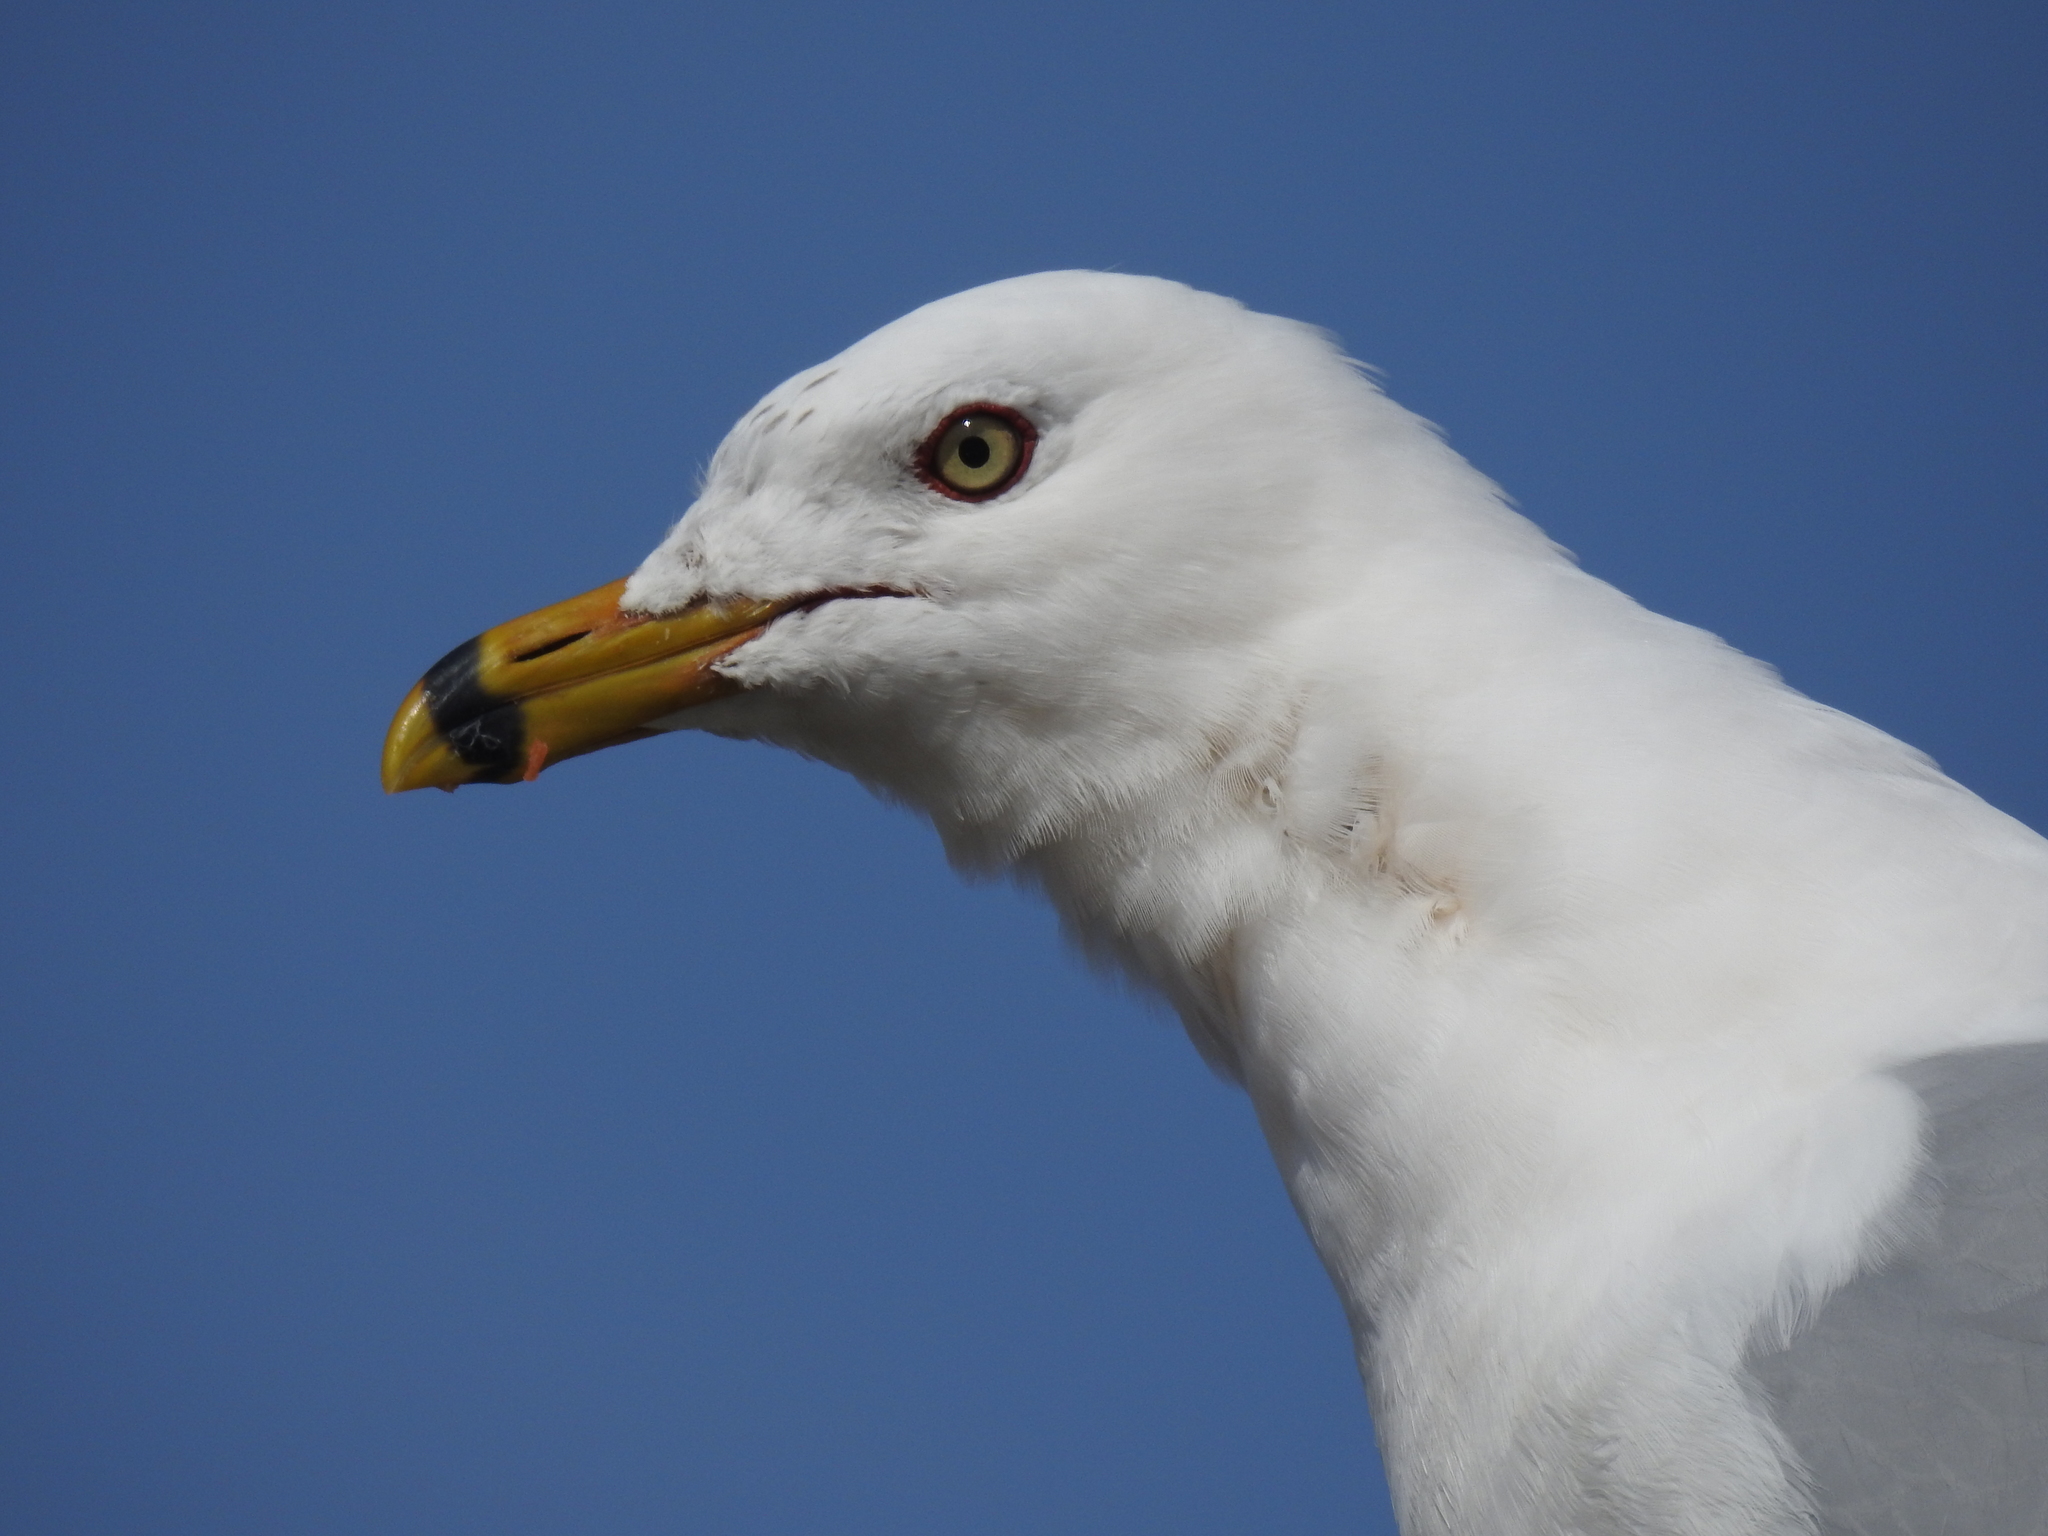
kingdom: Animalia
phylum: Chordata
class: Aves
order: Charadriiformes
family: Laridae
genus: Larus
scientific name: Larus delawarensis
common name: Ring-billed gull
